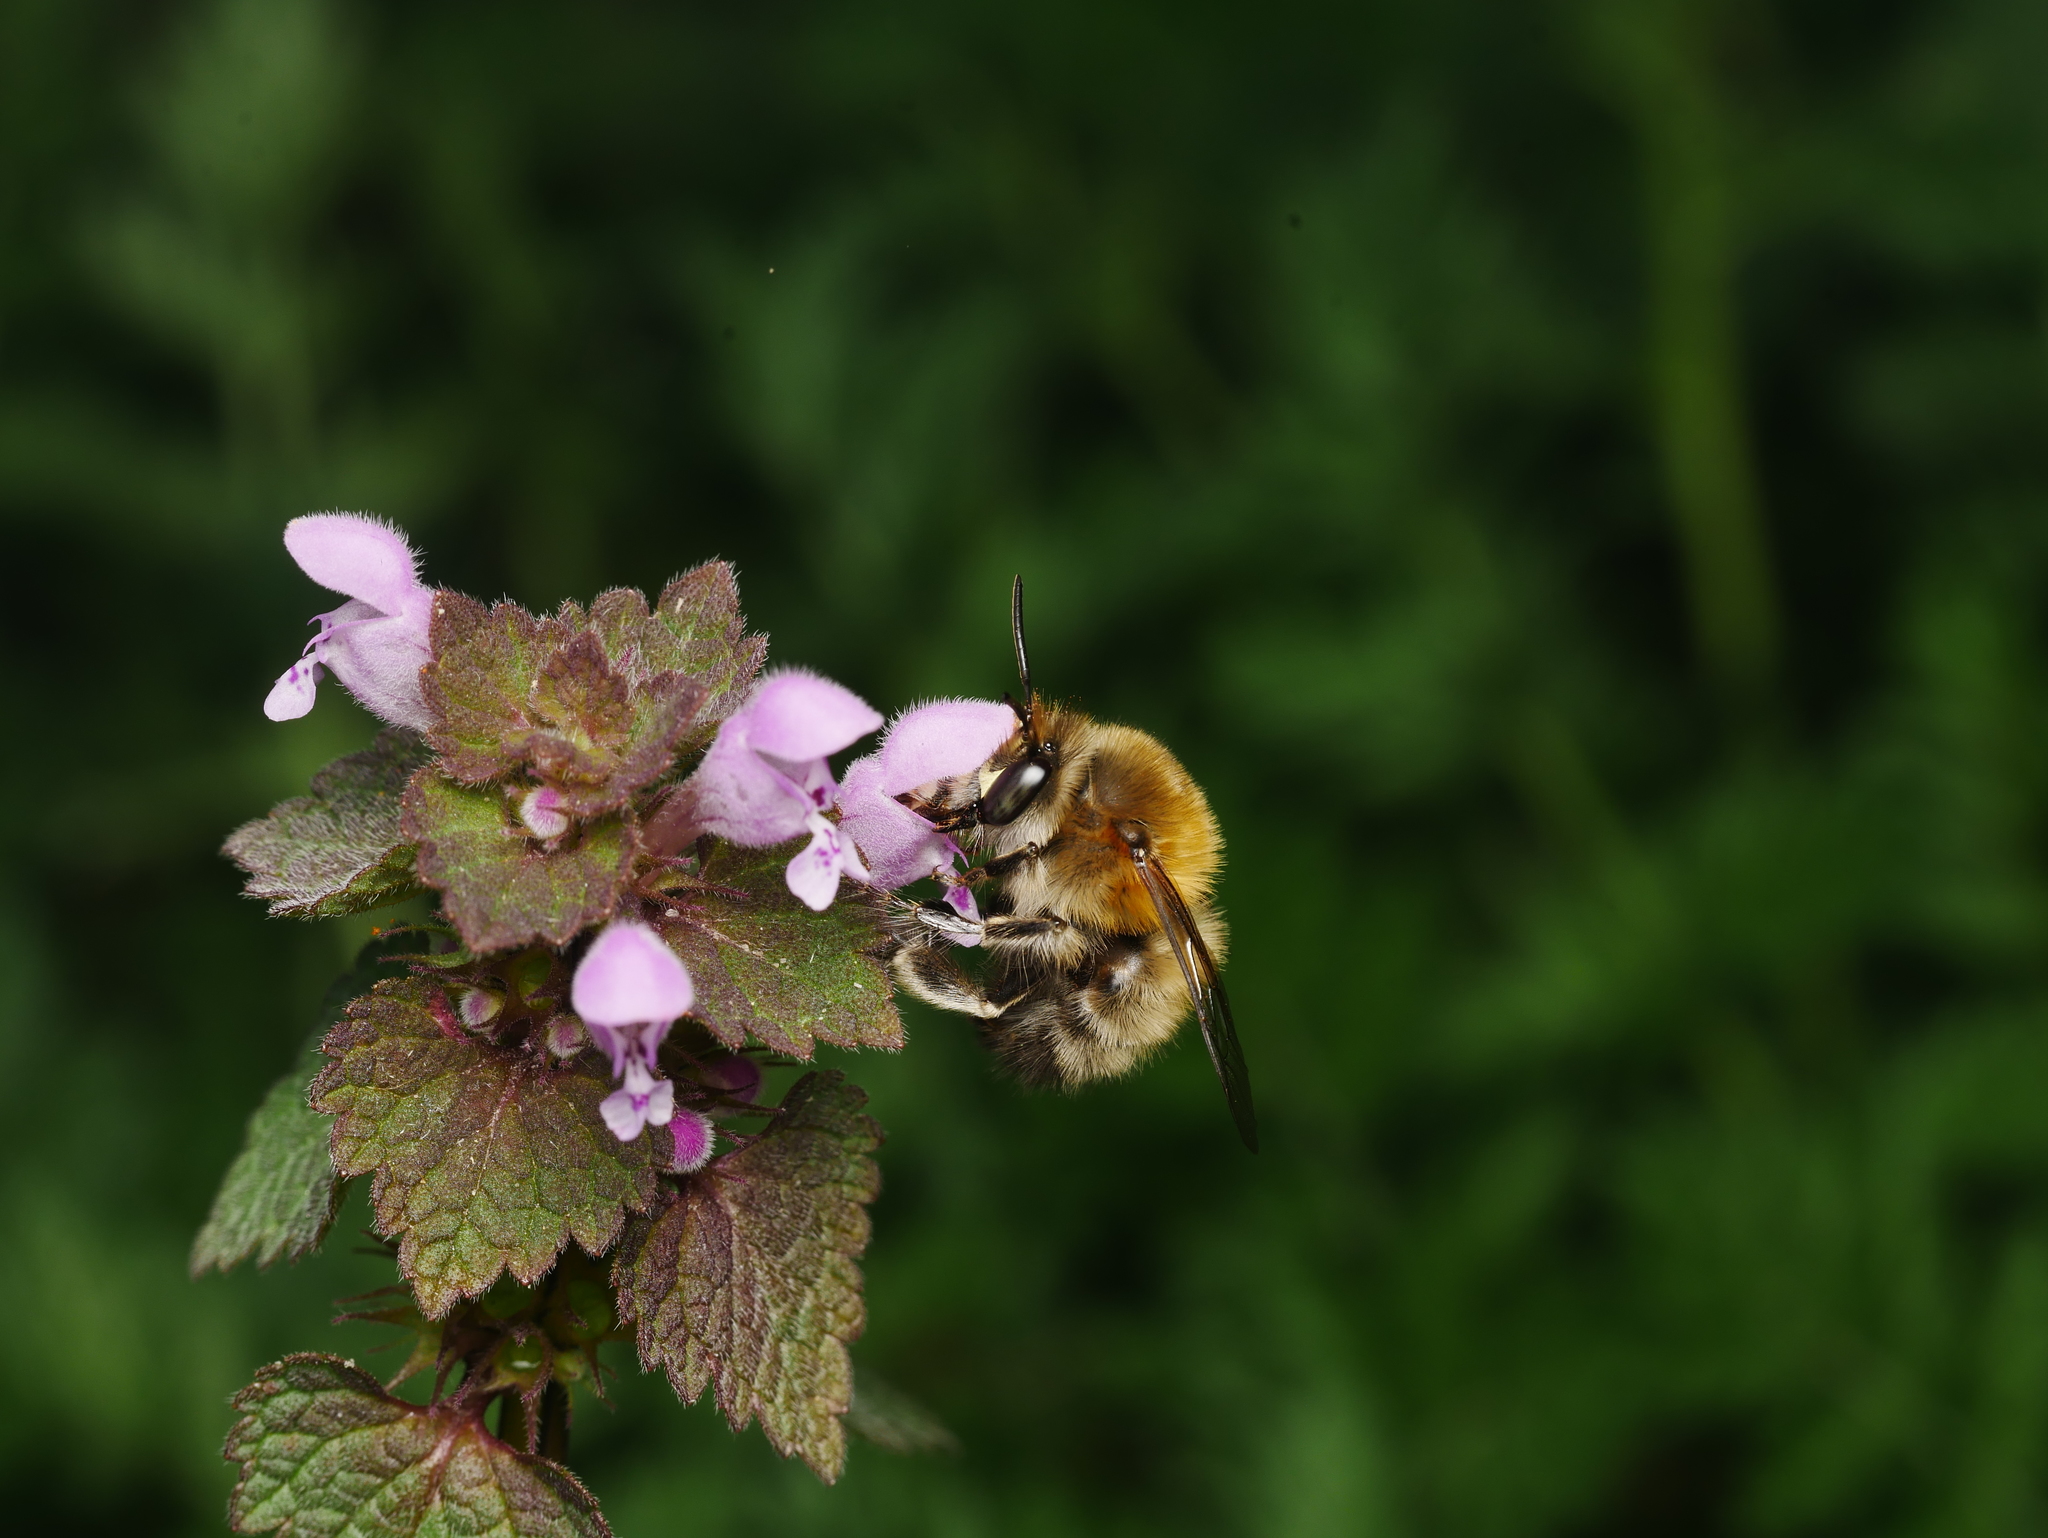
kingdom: Animalia
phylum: Arthropoda
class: Insecta
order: Hymenoptera
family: Apidae
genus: Anthophora
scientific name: Anthophora plumipes
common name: Hairy-footed flower bee
